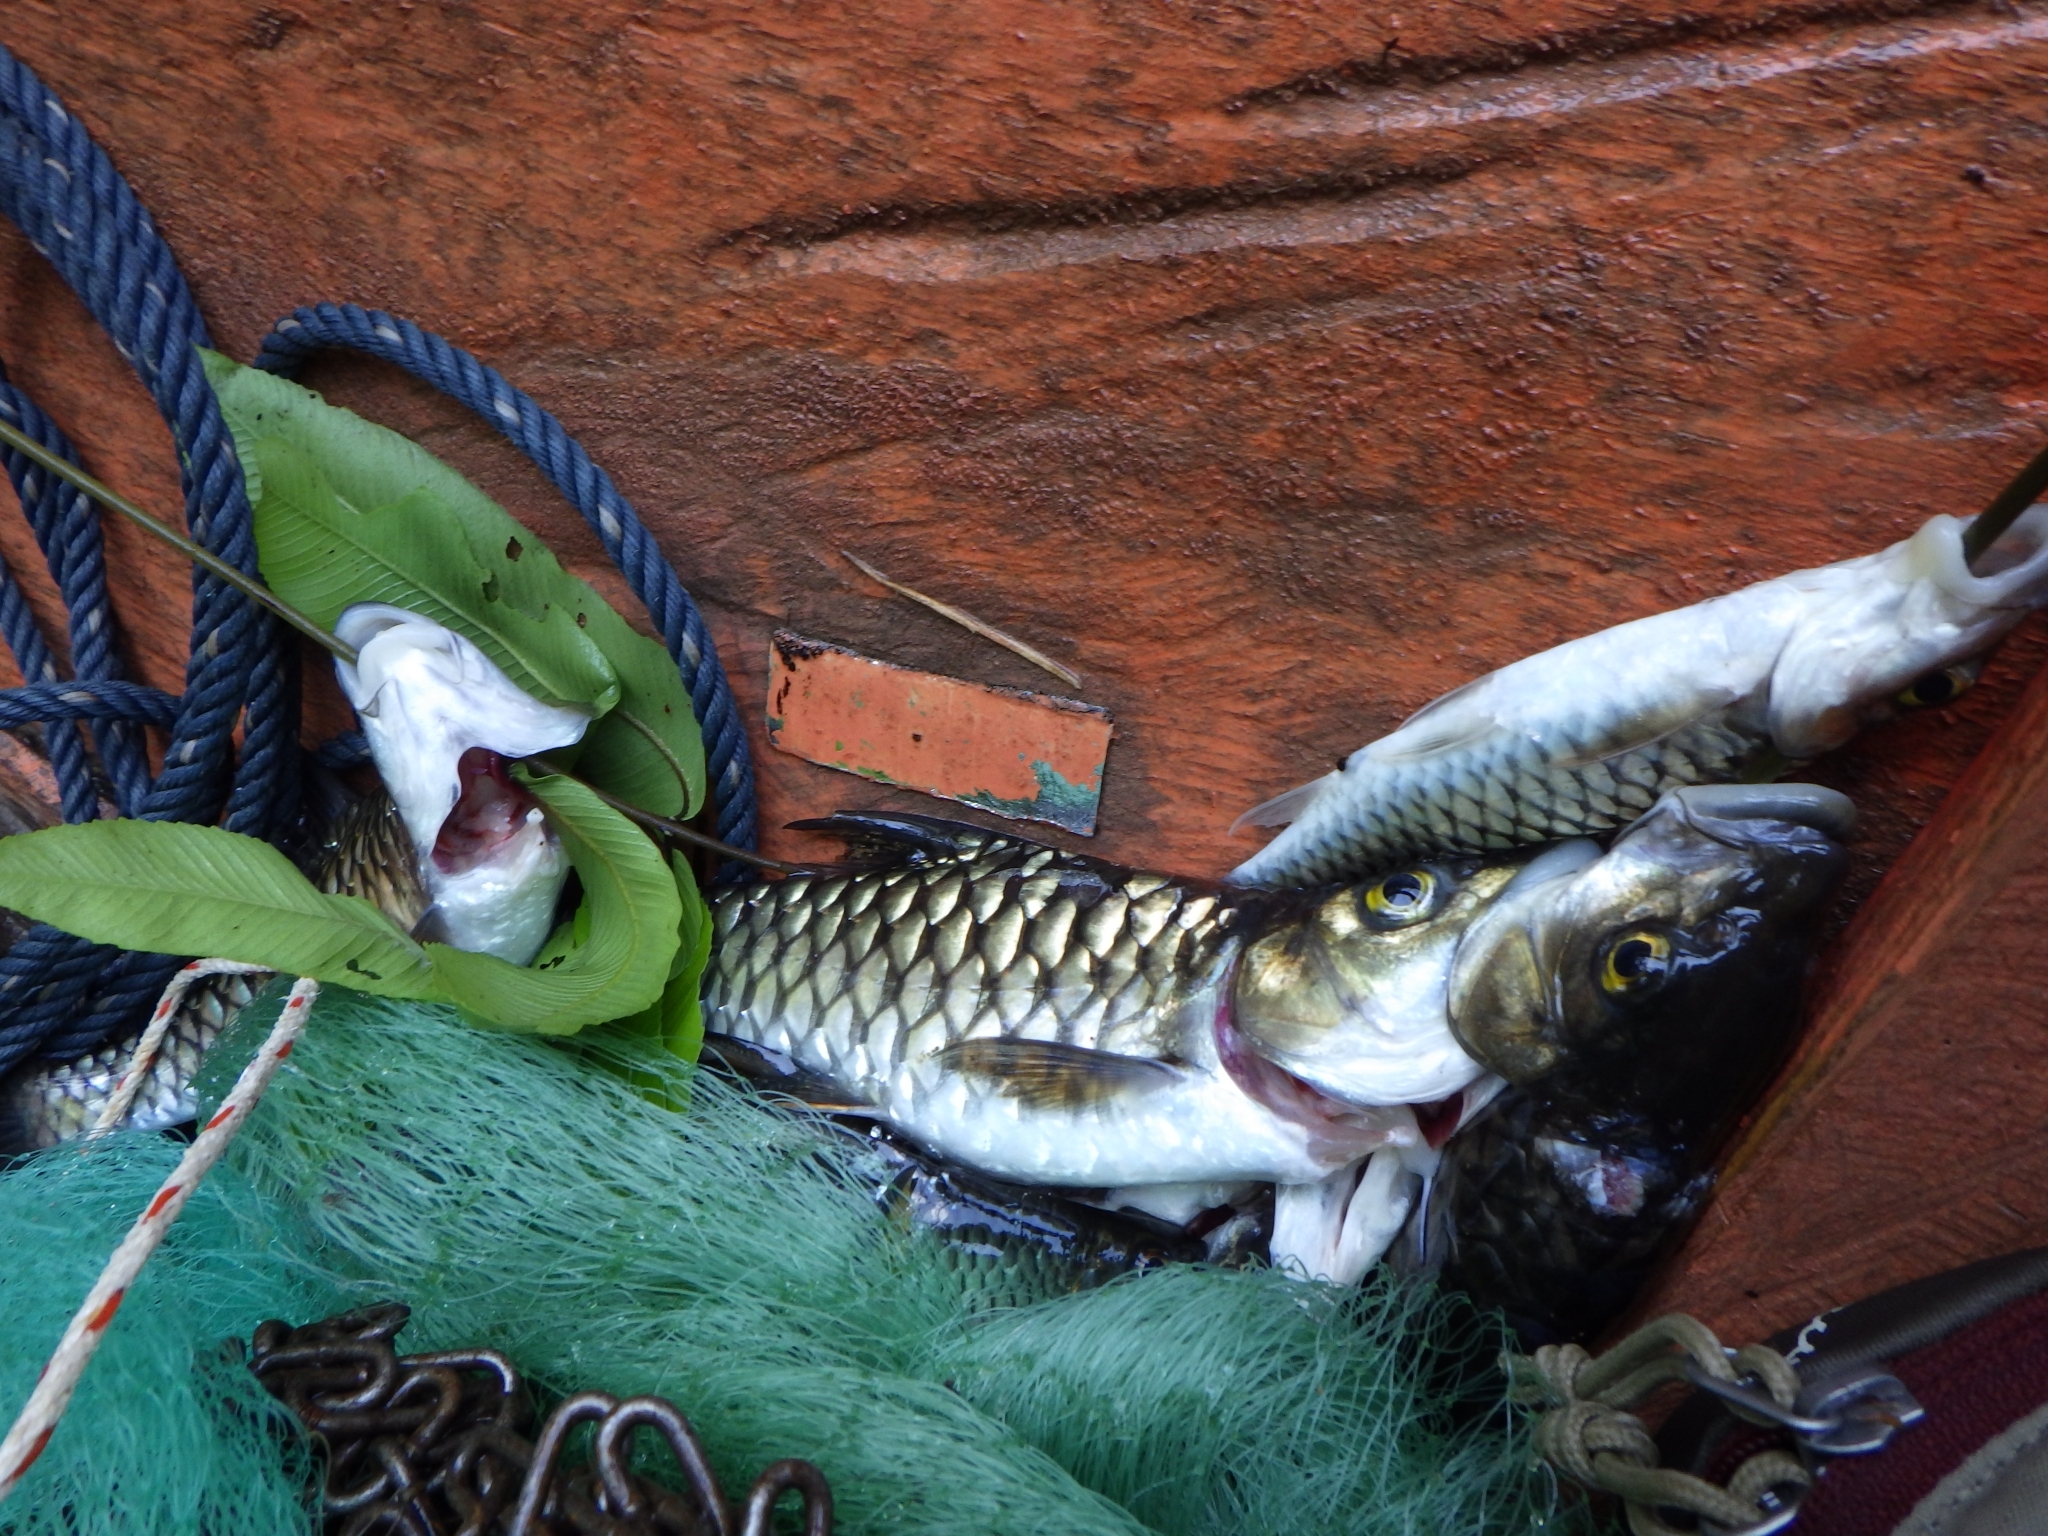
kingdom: Animalia
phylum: Chordata
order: Cypriniformes
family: Cyprinidae
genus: Tor
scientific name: Tor tambra
